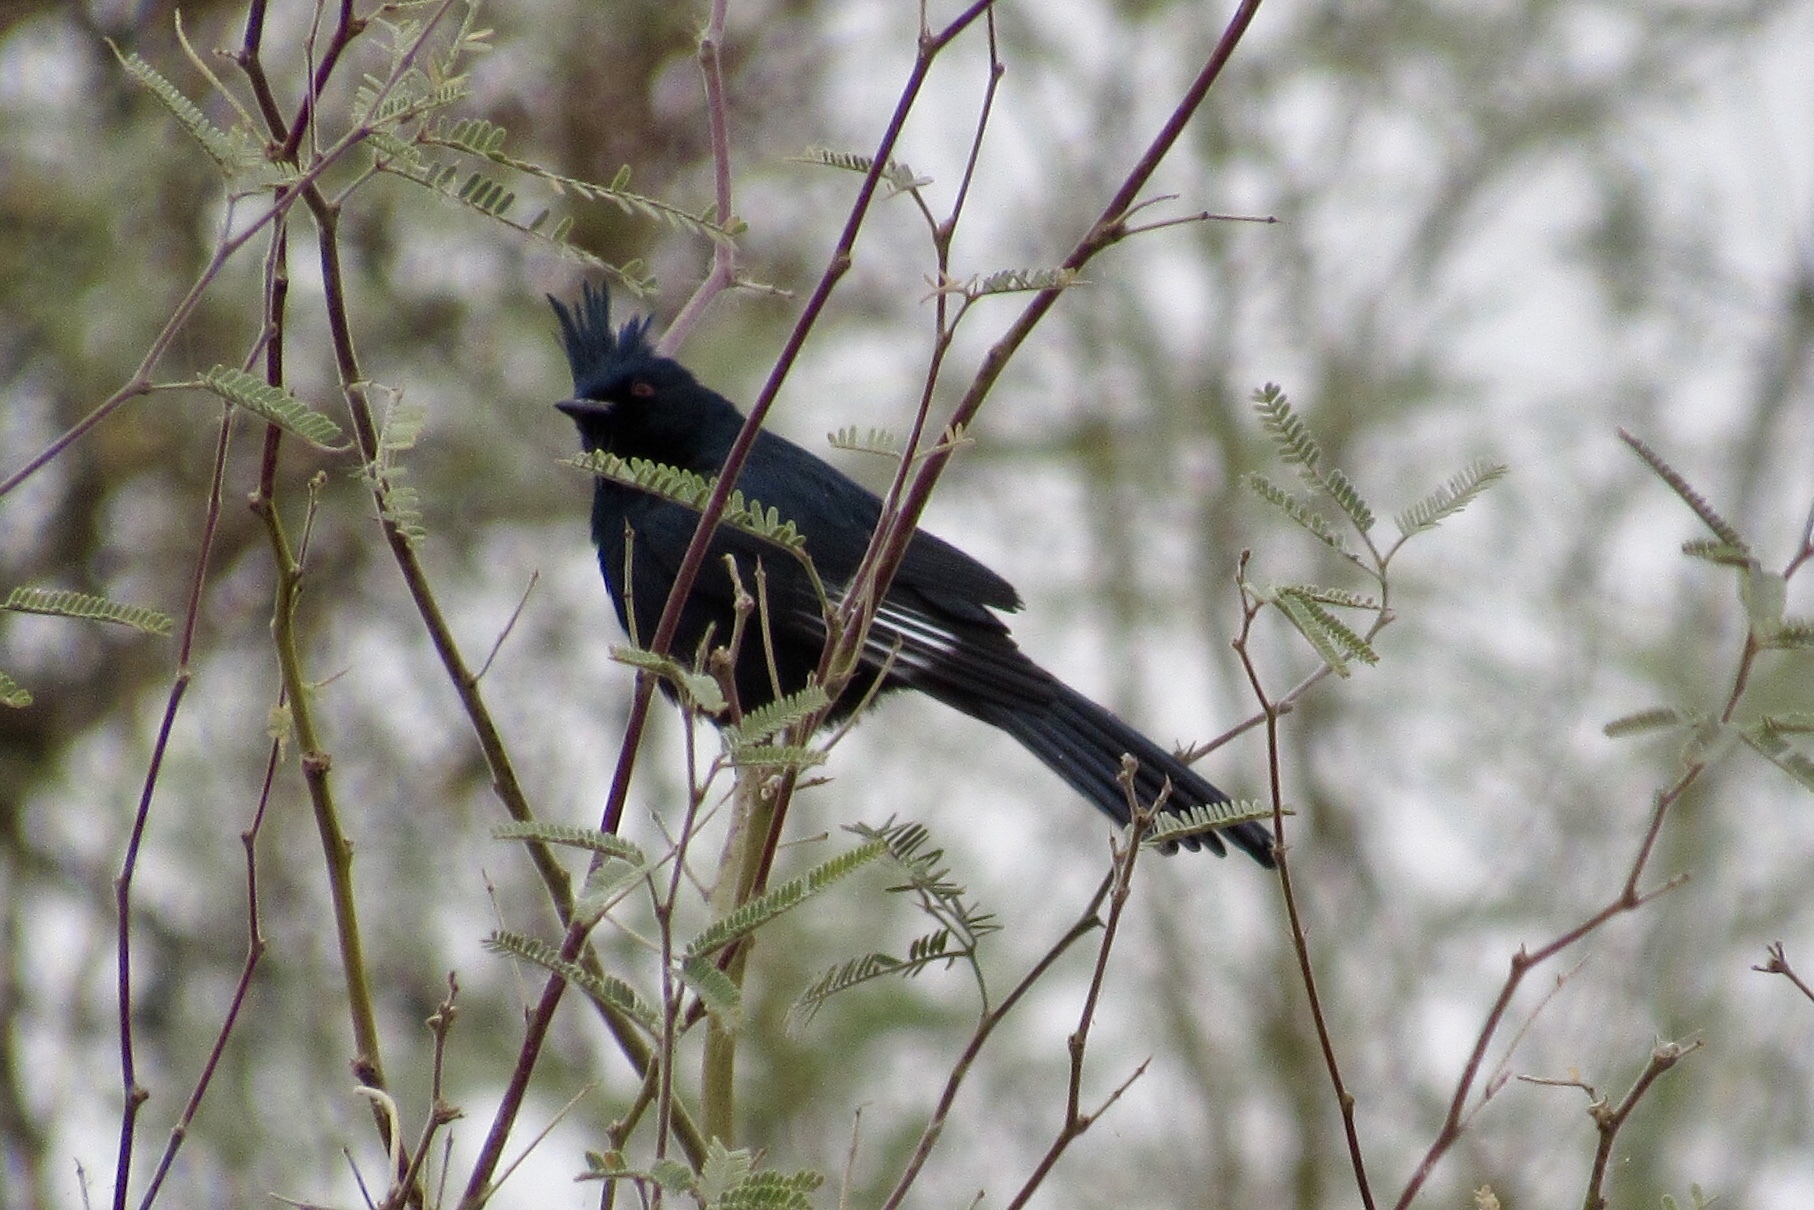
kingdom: Animalia
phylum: Chordata
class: Aves
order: Passeriformes
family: Ptilogonatidae
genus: Phainopepla
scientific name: Phainopepla nitens
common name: Phainopepla
